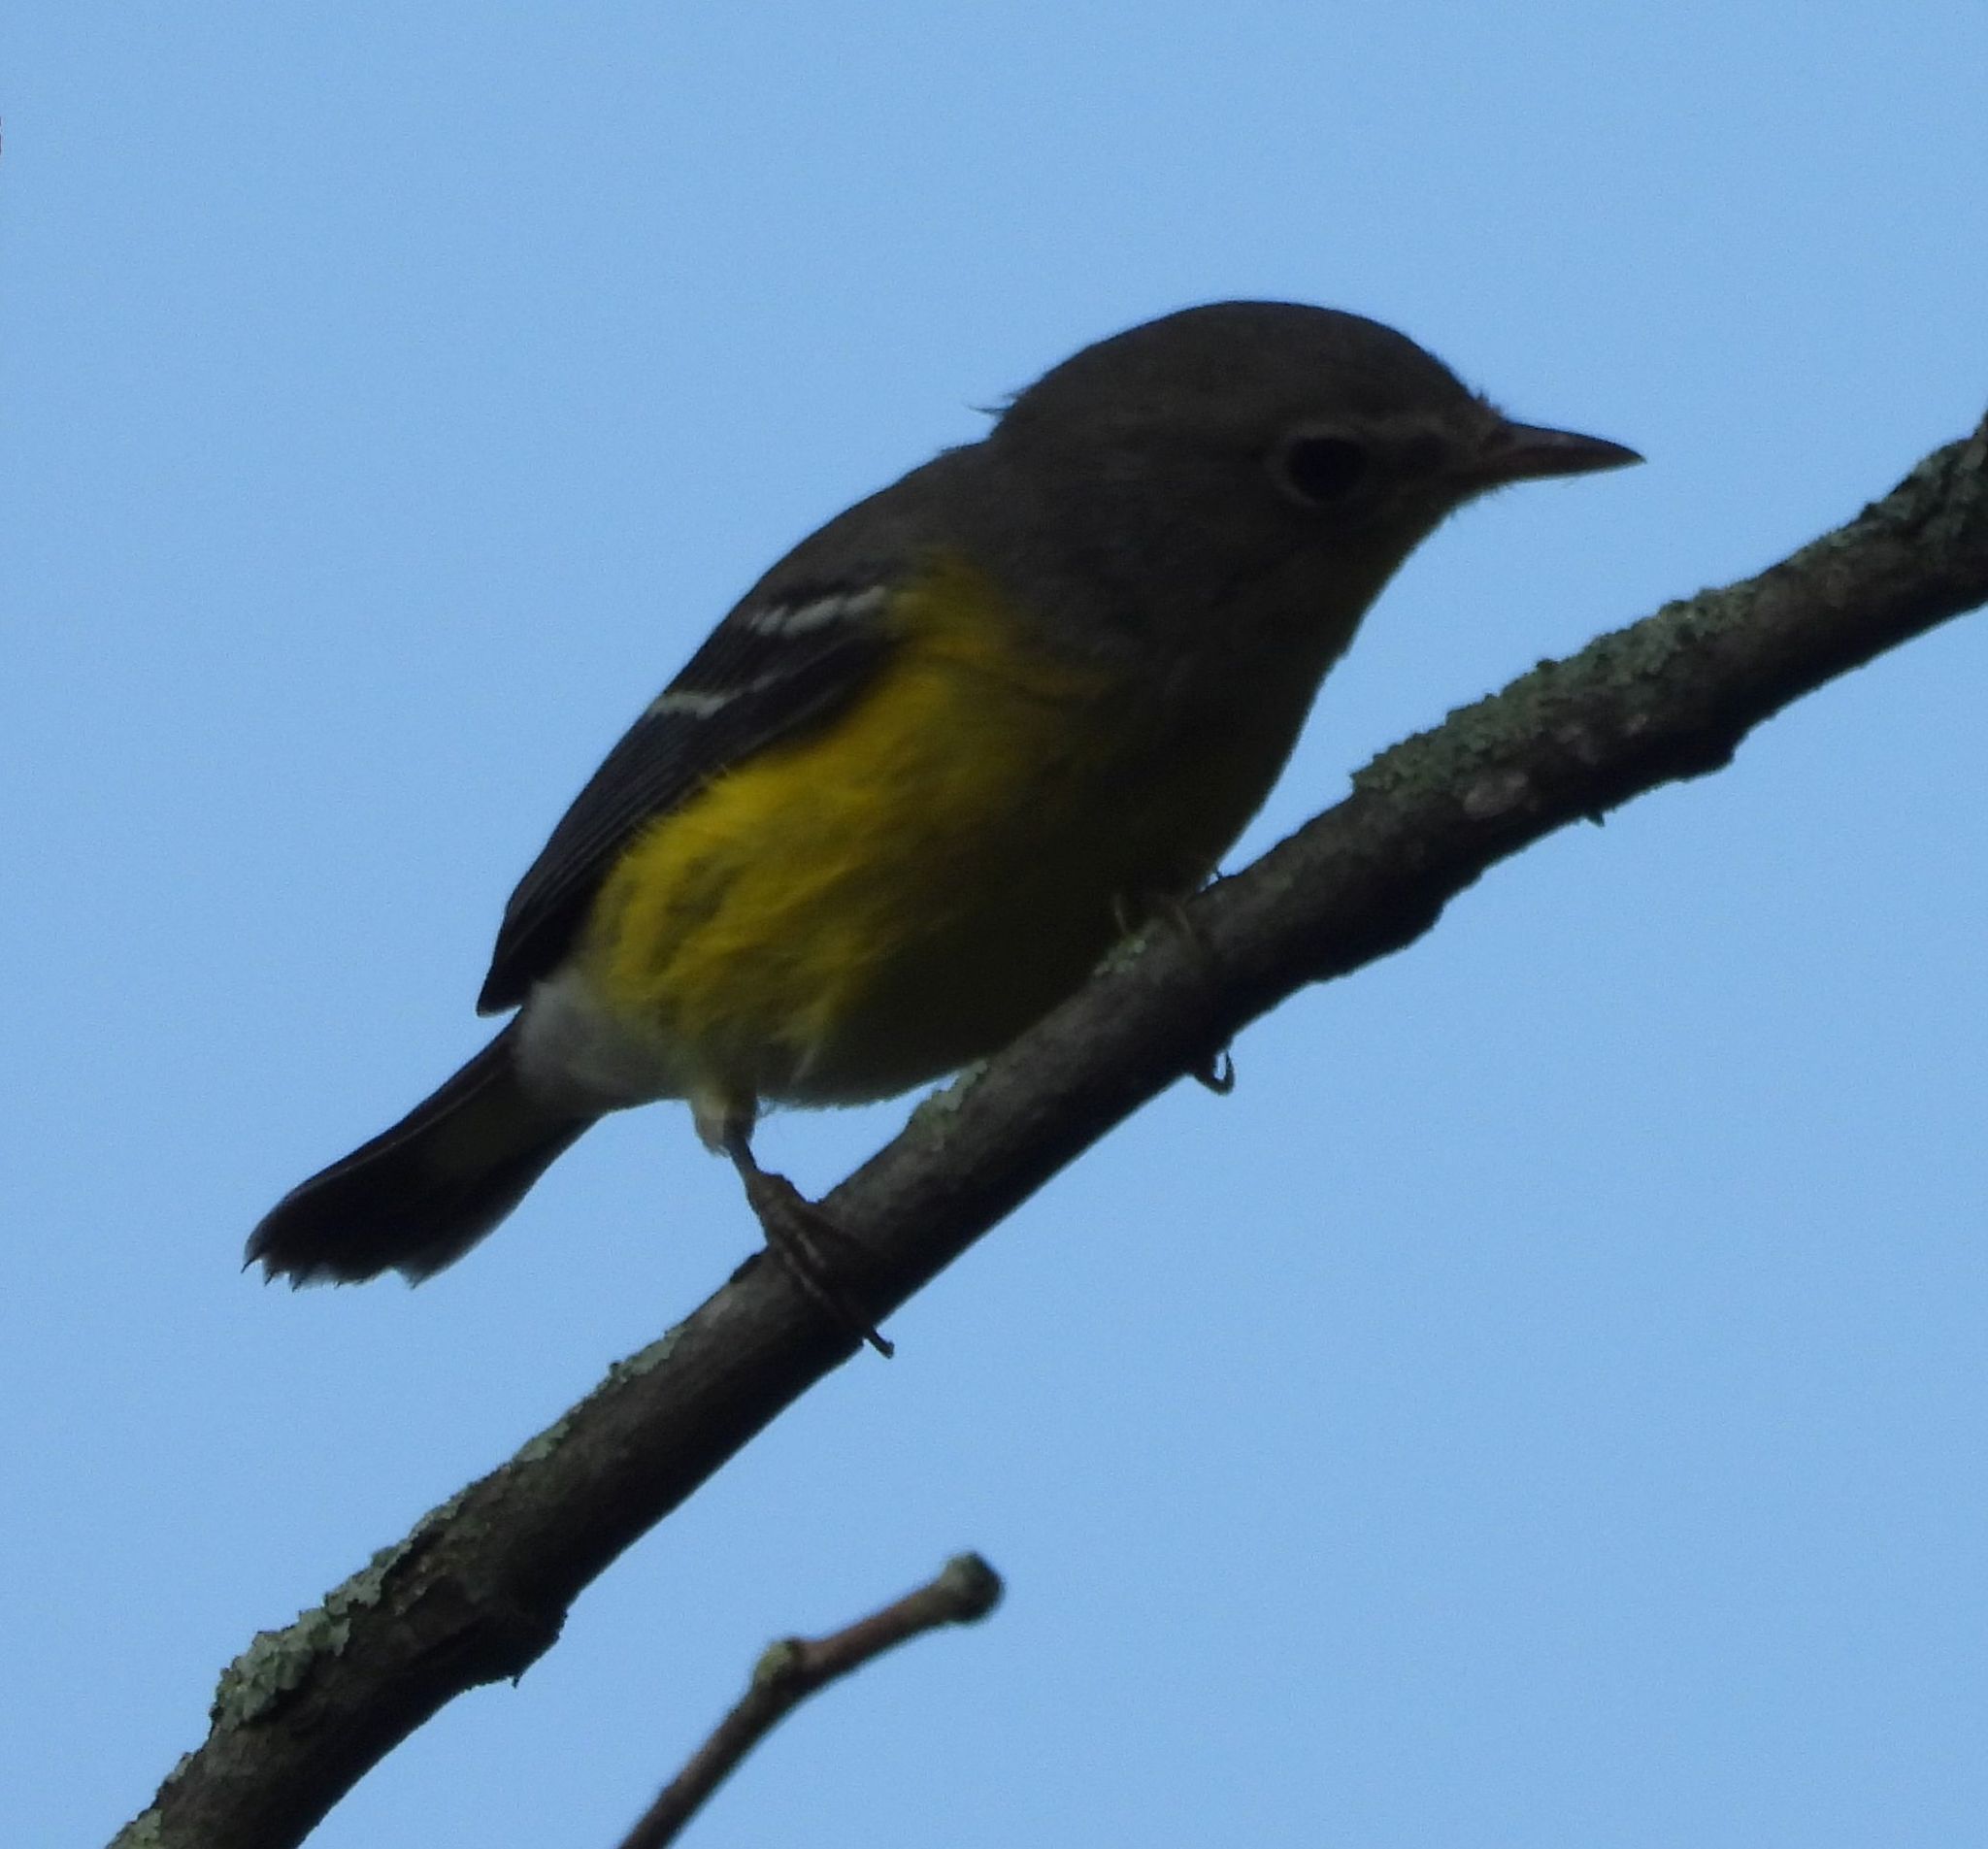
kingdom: Animalia
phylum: Chordata
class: Aves
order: Passeriformes
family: Parulidae
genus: Setophaga
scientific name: Setophaga magnolia
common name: Magnolia warbler
